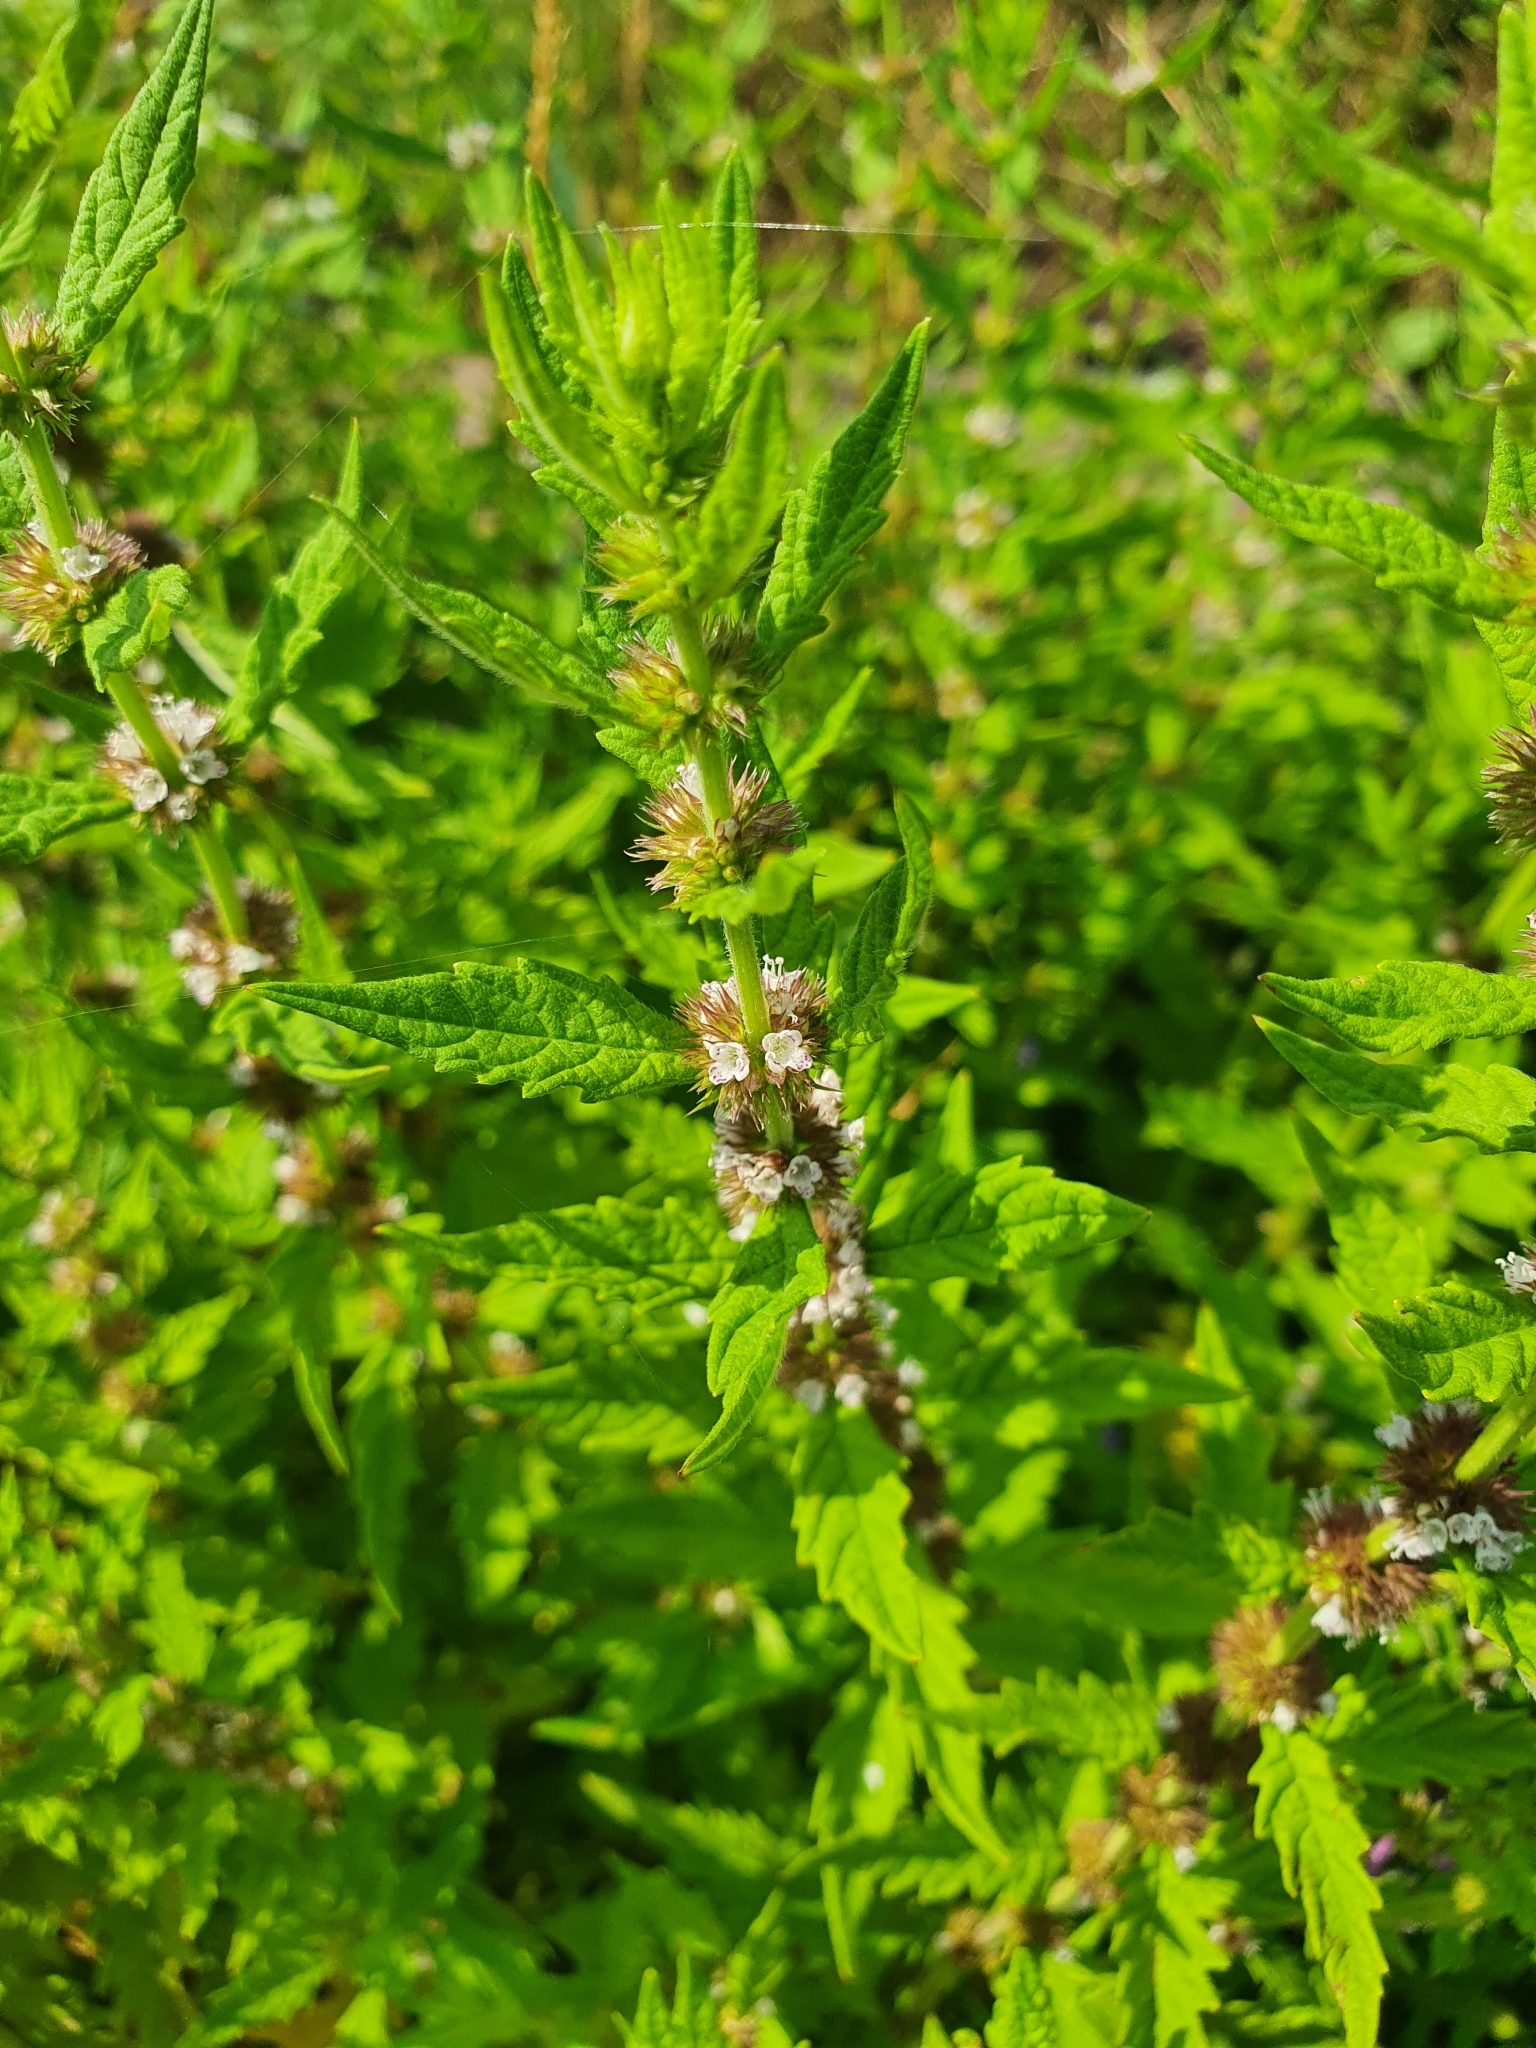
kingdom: Plantae
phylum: Tracheophyta
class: Magnoliopsida
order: Lamiales
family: Lamiaceae
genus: Lycopus
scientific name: Lycopus europaeus
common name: European bugleweed
